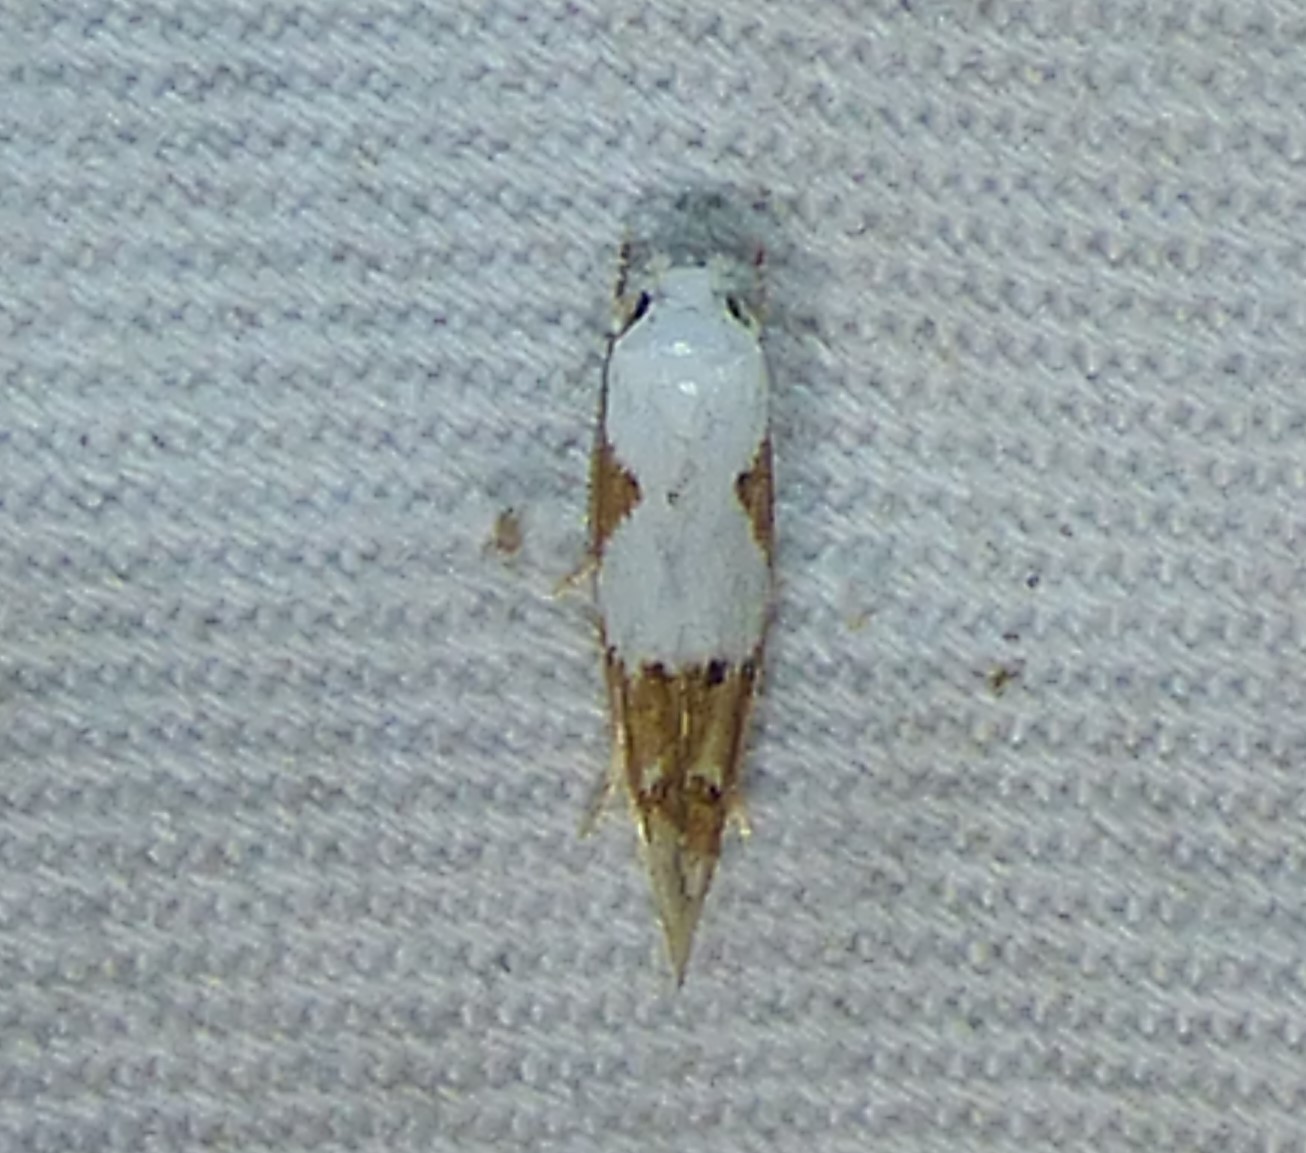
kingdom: Animalia
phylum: Arthropoda
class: Insecta
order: Lepidoptera
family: Momphidae
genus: Mompha
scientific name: Mompha circumscriptella
